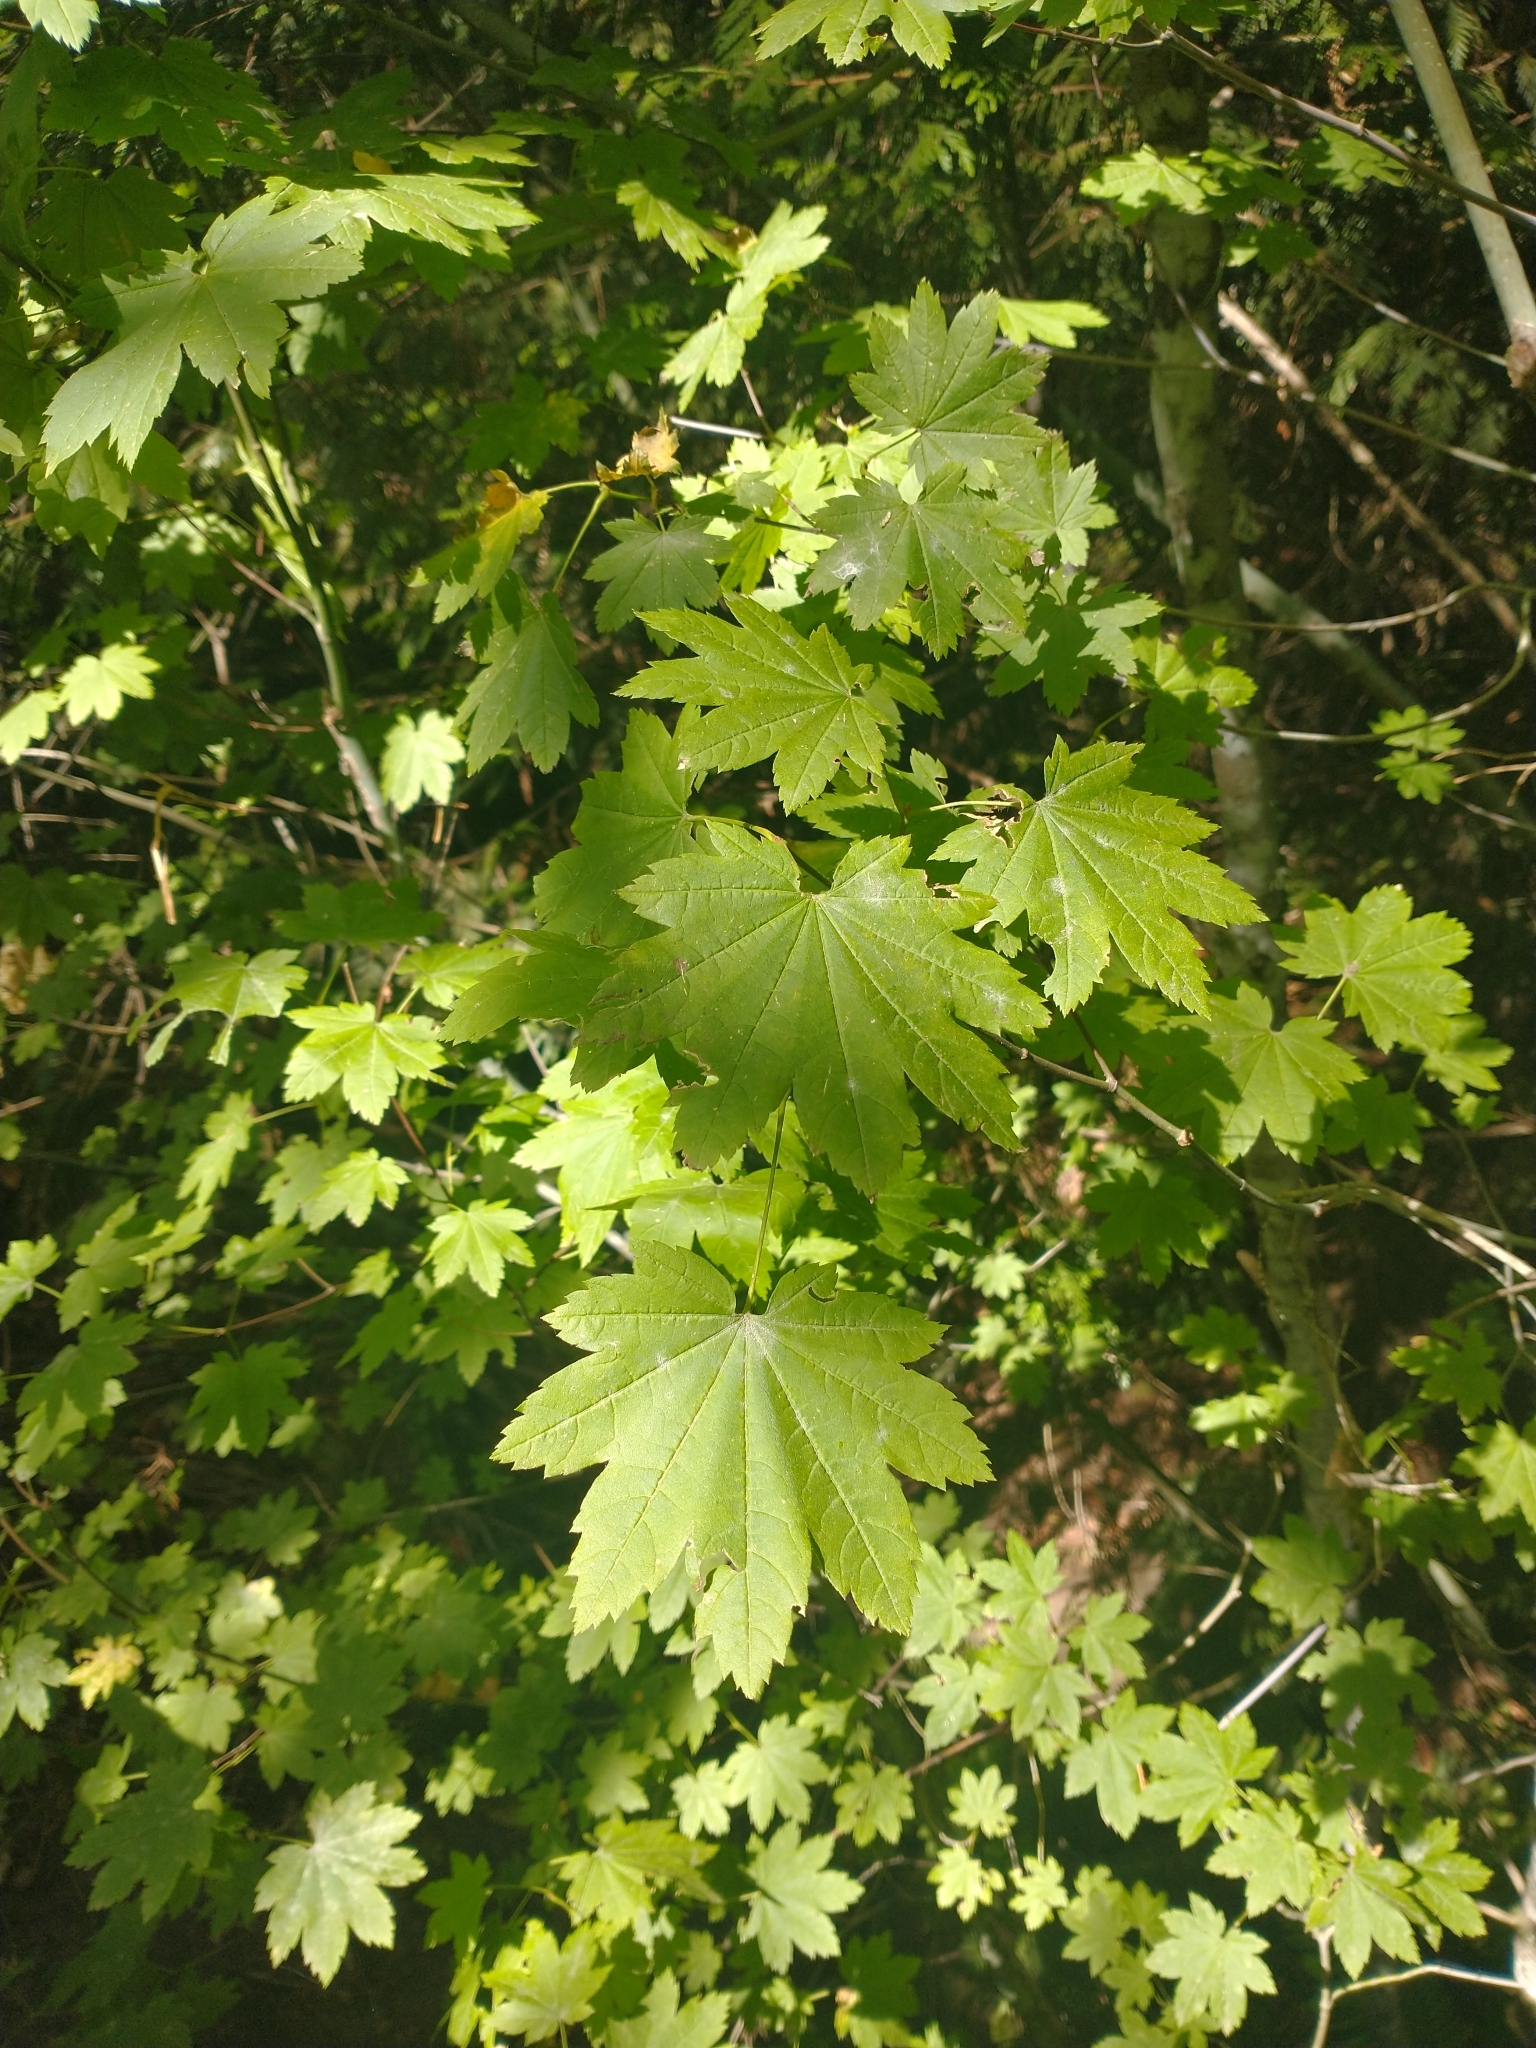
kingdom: Plantae
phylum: Tracheophyta
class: Magnoliopsida
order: Sapindales
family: Sapindaceae
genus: Acer
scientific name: Acer circinatum
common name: Vine maple
